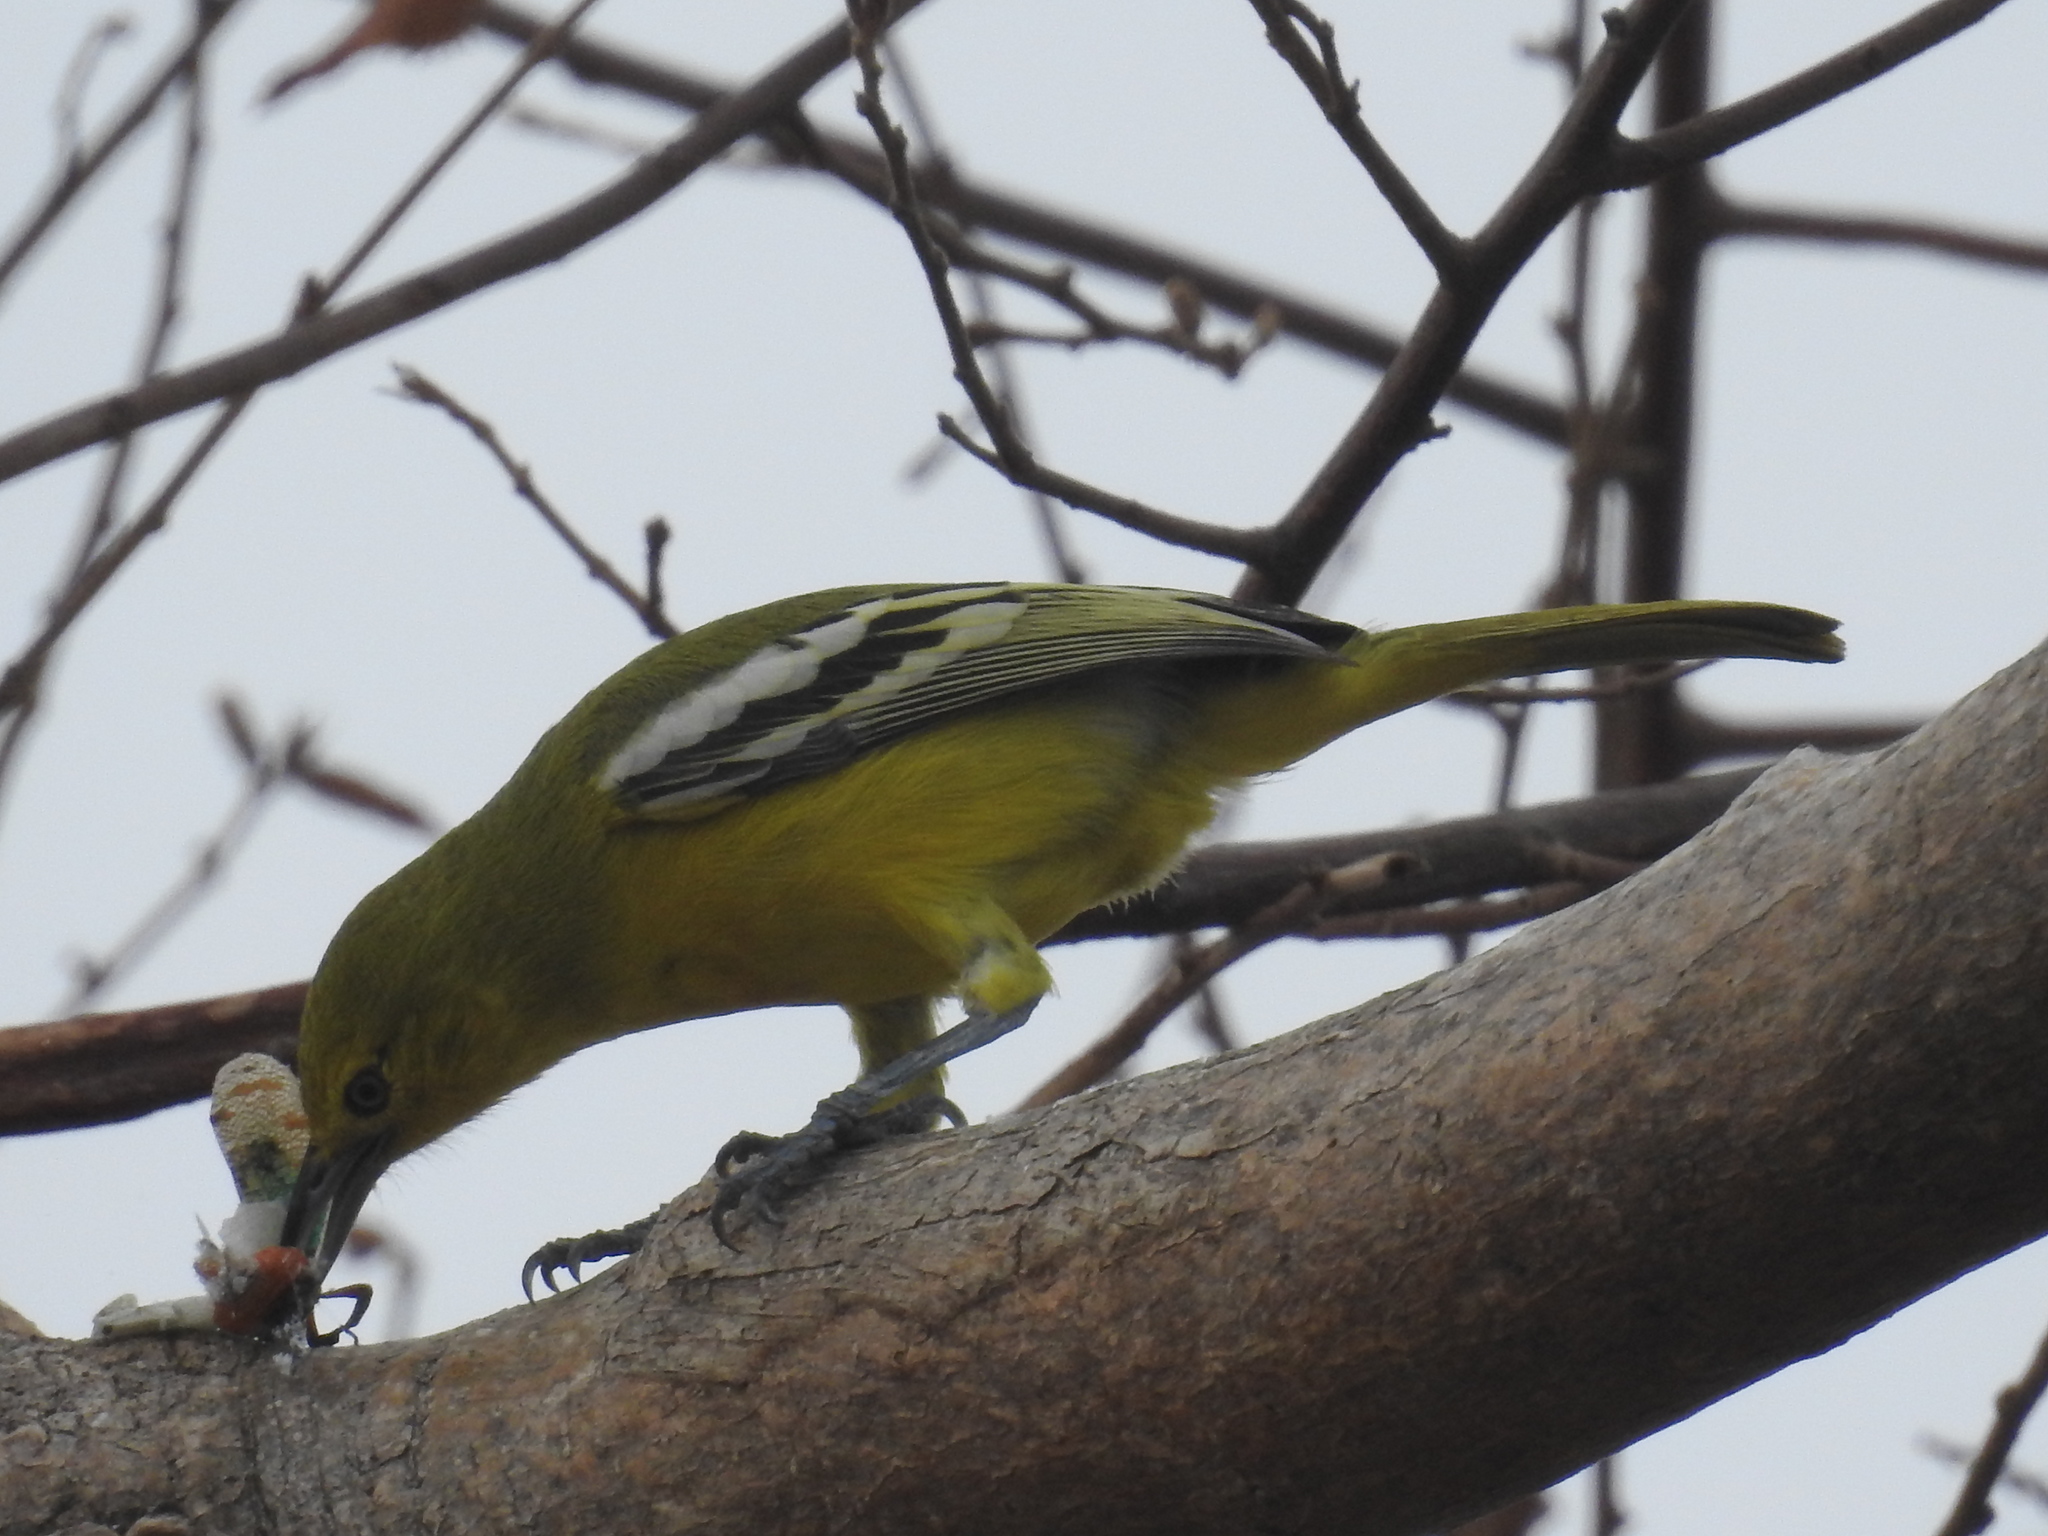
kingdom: Animalia
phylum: Chordata
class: Aves
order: Passeriformes
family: Aegithinidae
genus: Aegithina
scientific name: Aegithina tiphia
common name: Common iora
